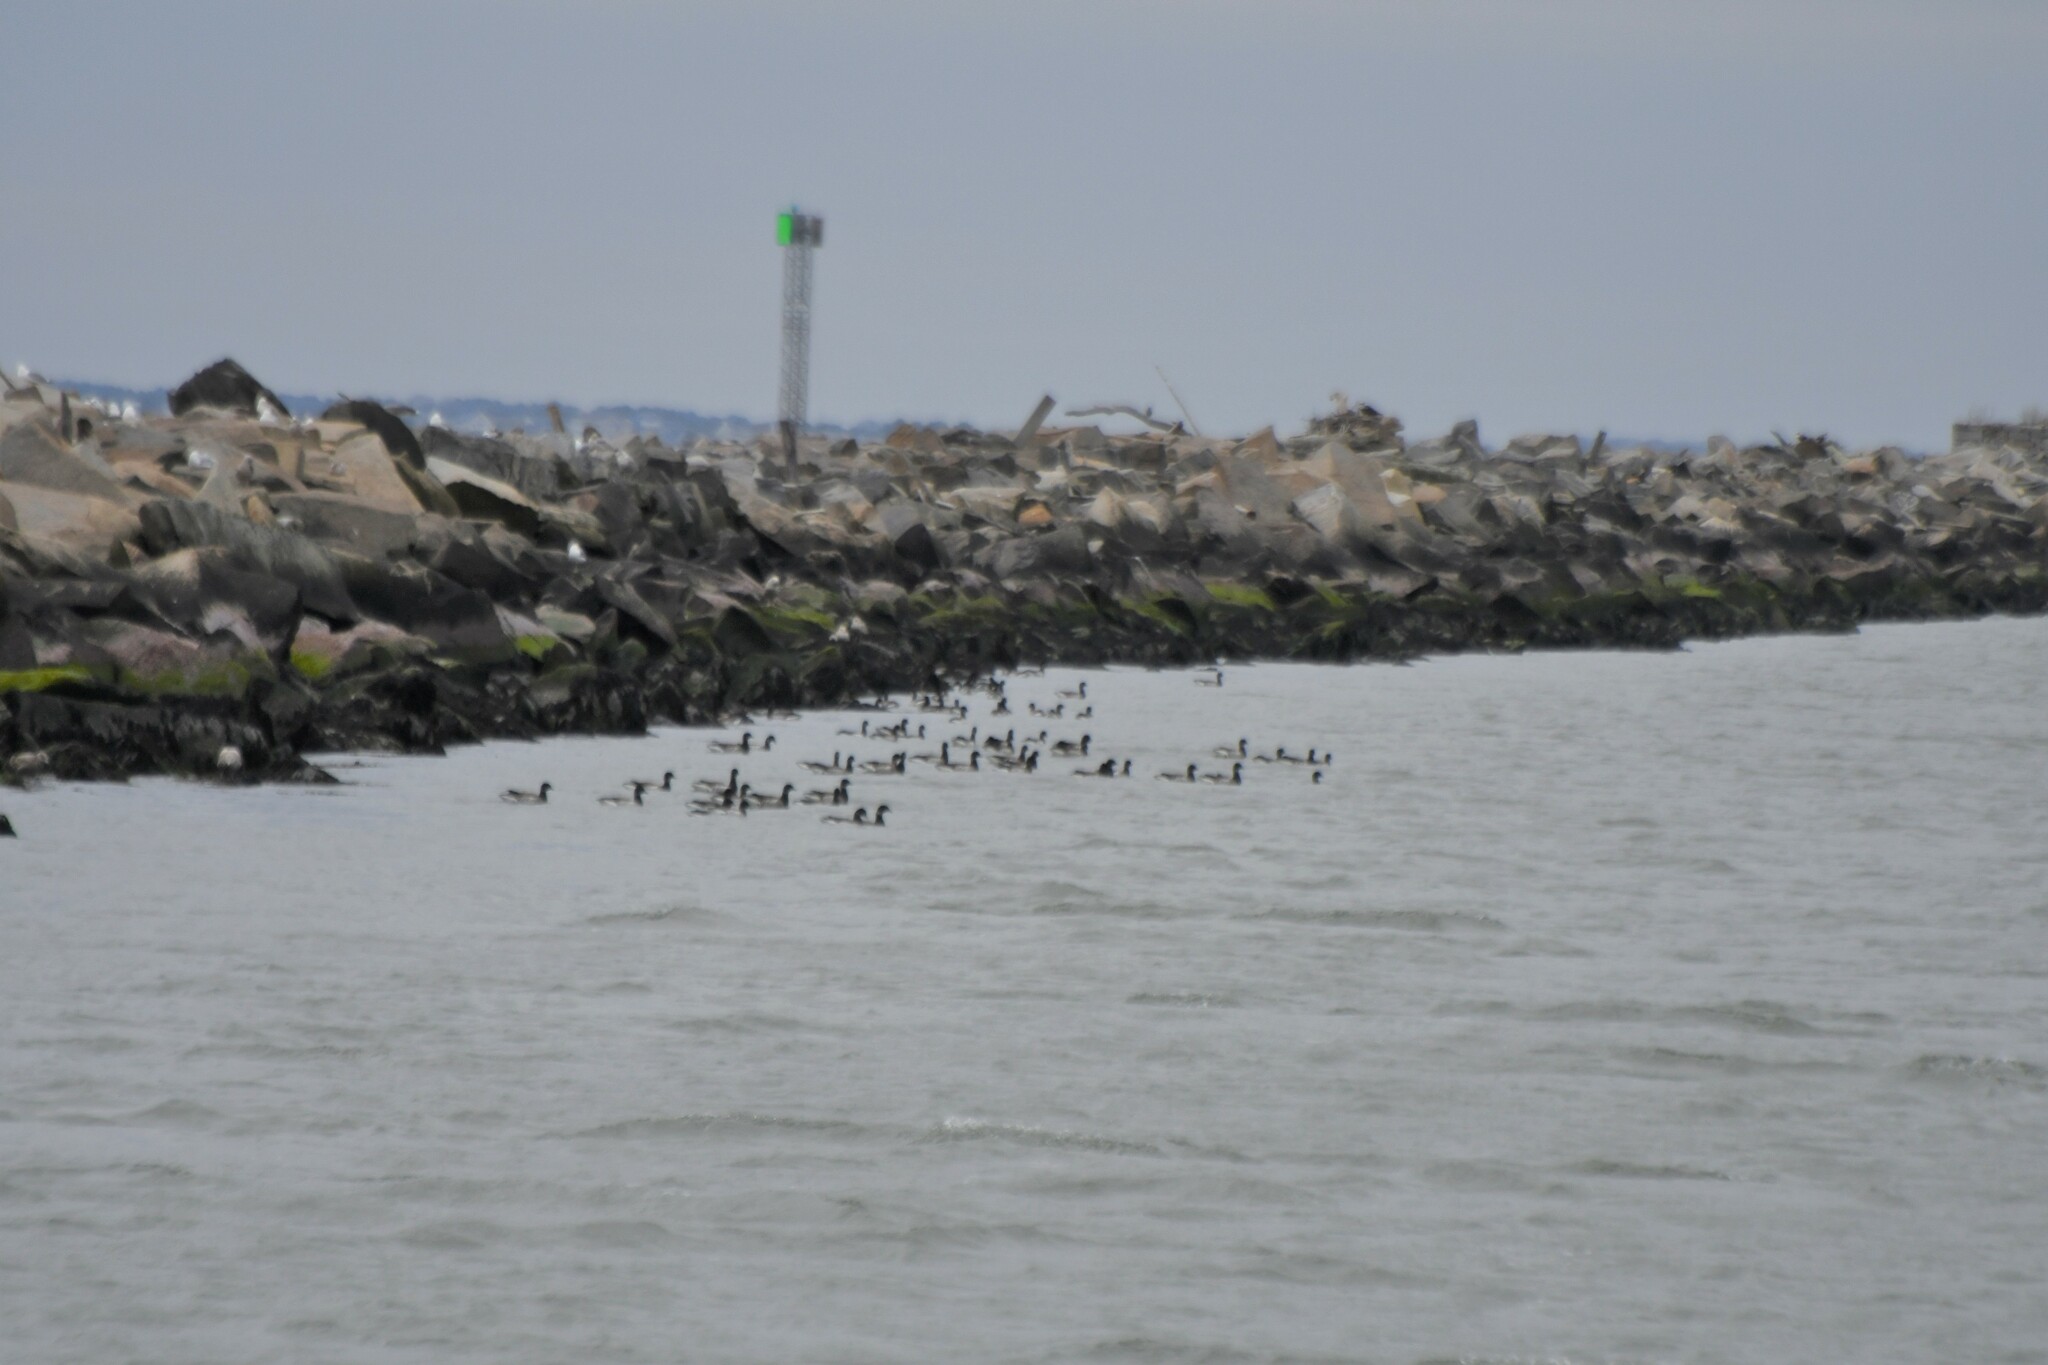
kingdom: Animalia
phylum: Chordata
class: Aves
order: Anseriformes
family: Anatidae
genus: Branta
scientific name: Branta bernicla
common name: Brant goose
